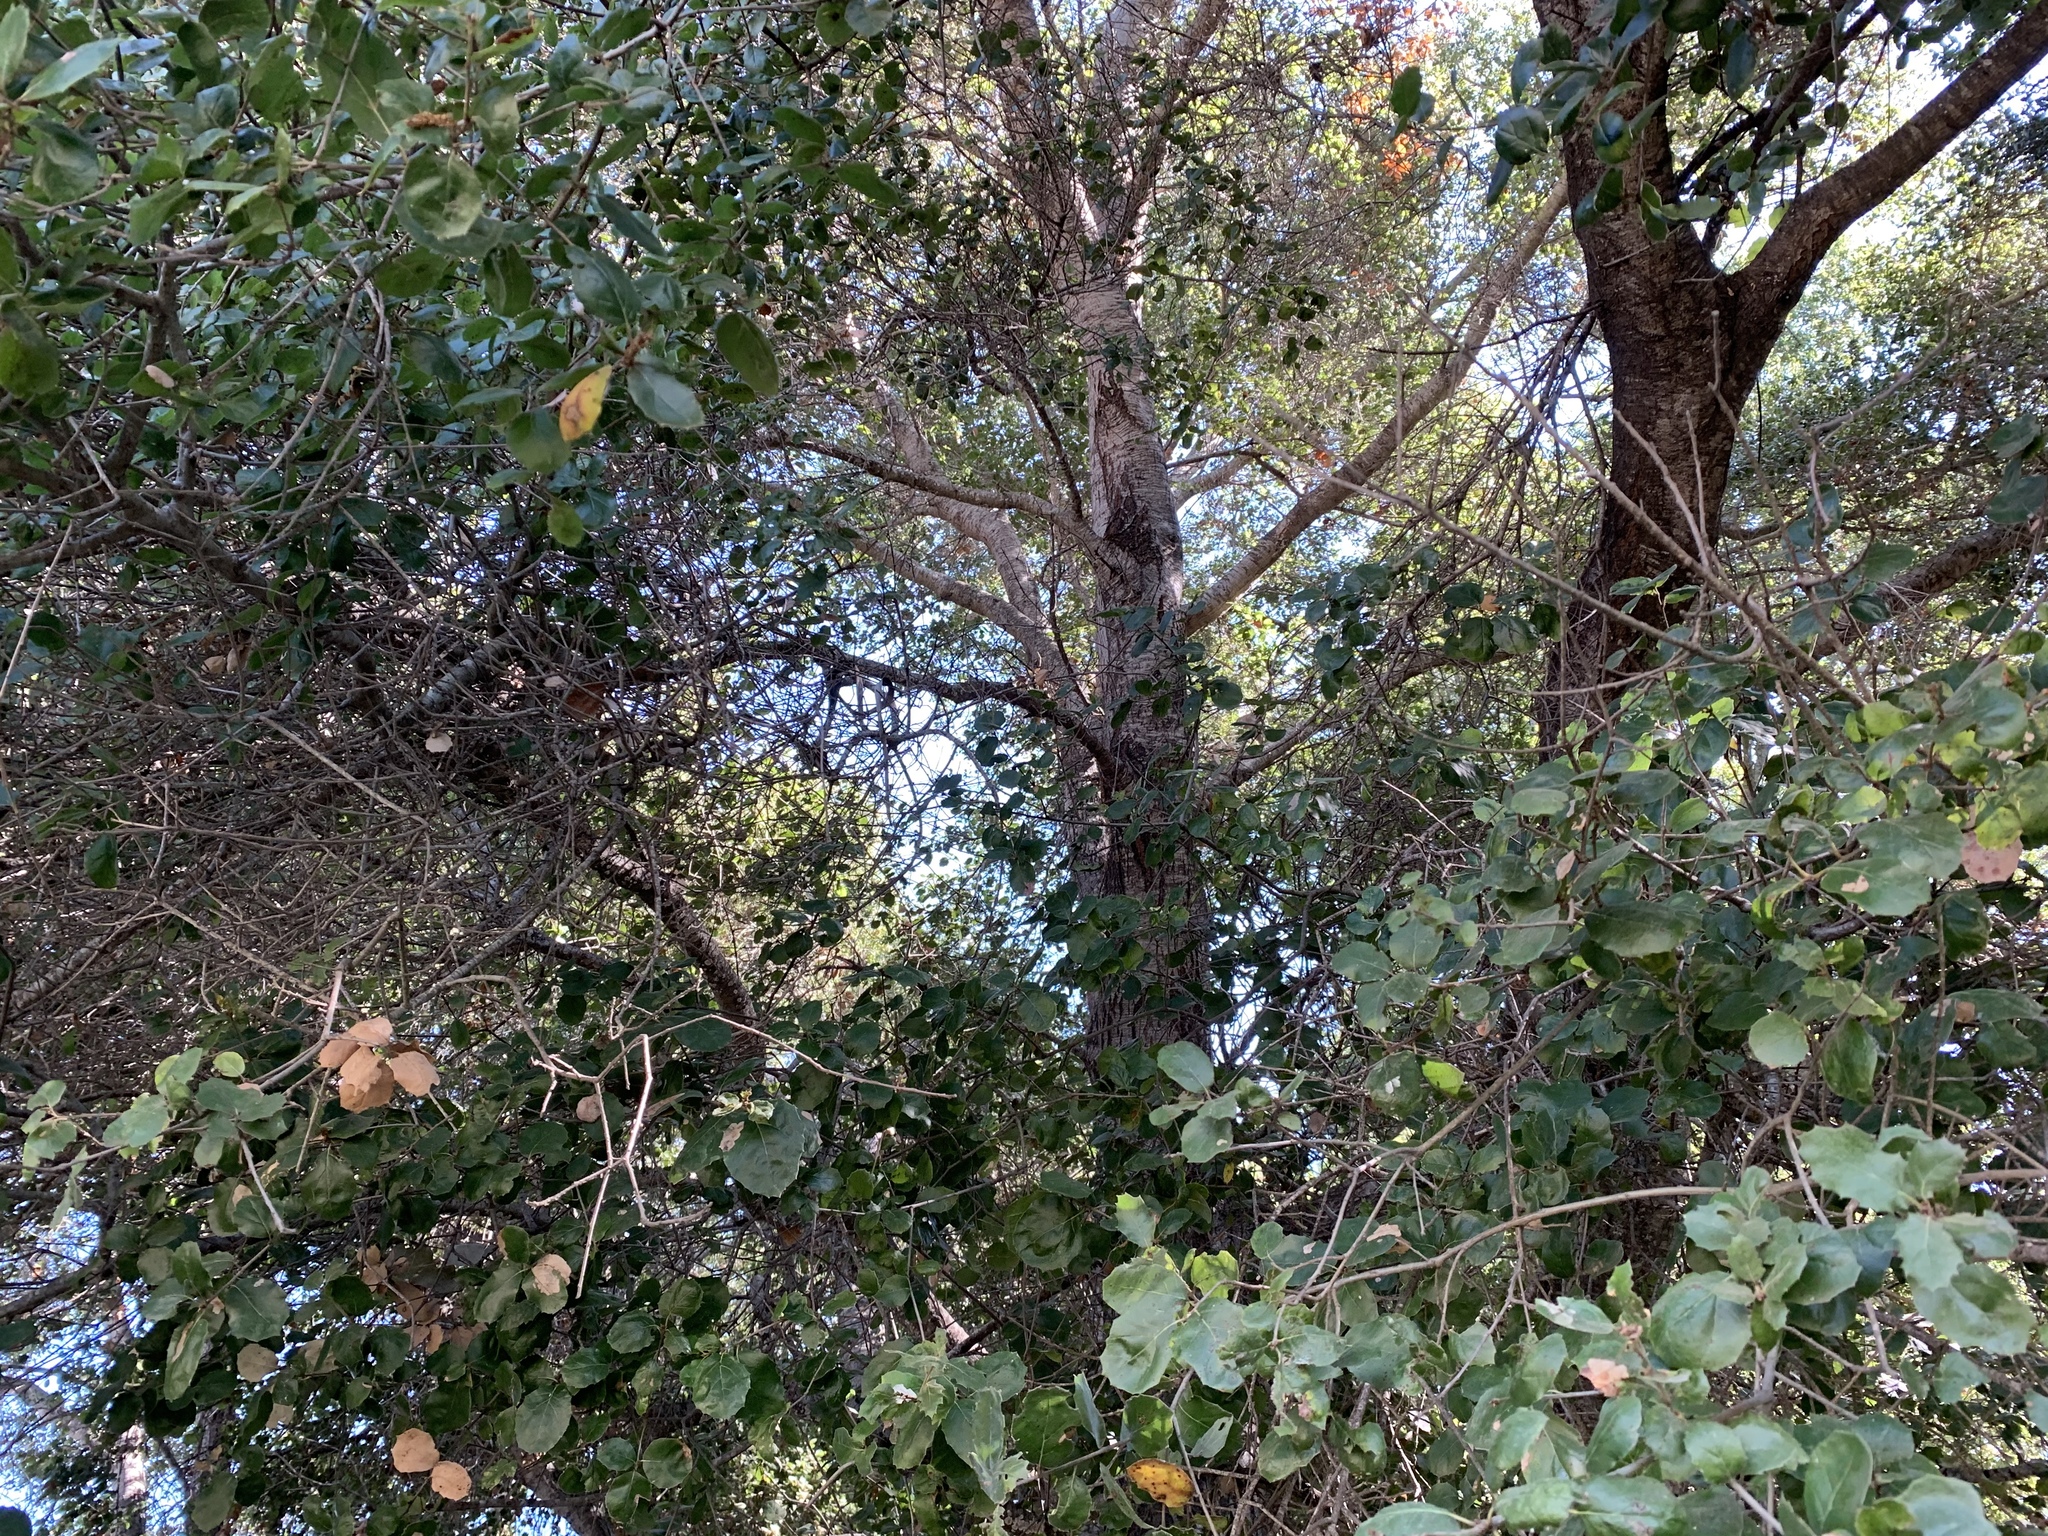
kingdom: Plantae
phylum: Tracheophyta
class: Magnoliopsida
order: Fagales
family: Fagaceae
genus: Quercus
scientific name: Quercus agrifolia
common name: California live oak
